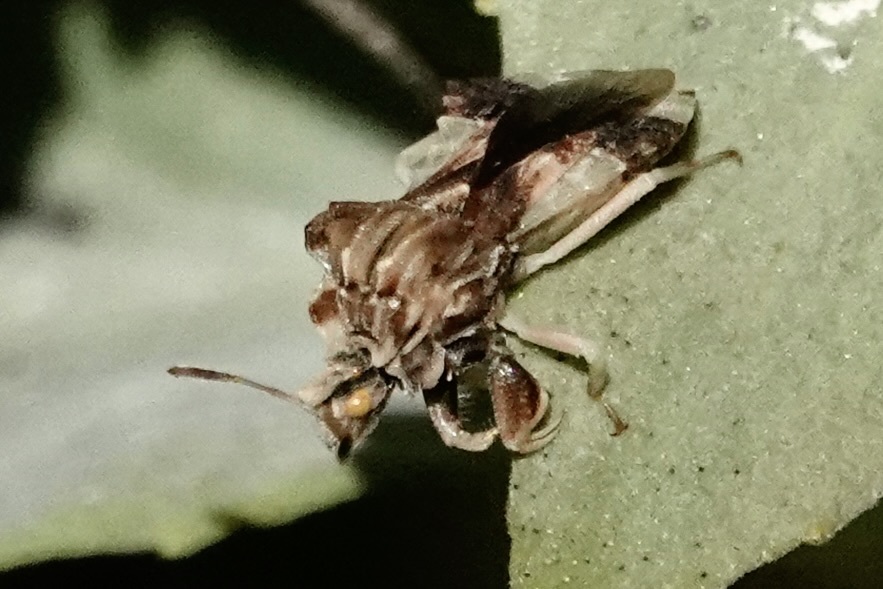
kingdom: Animalia
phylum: Arthropoda
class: Insecta
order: Hemiptera
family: Reduviidae
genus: Phymata
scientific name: Phymata fasciata
